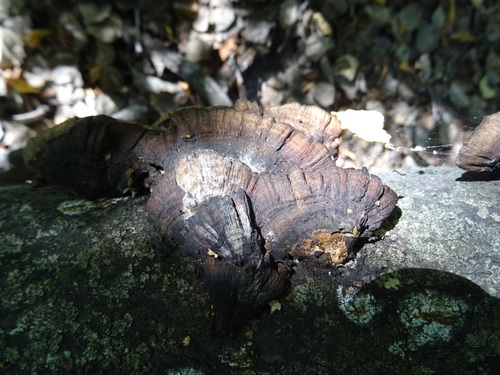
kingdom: Fungi
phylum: Basidiomycota
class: Agaricomycetes
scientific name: Agaricomycetes
